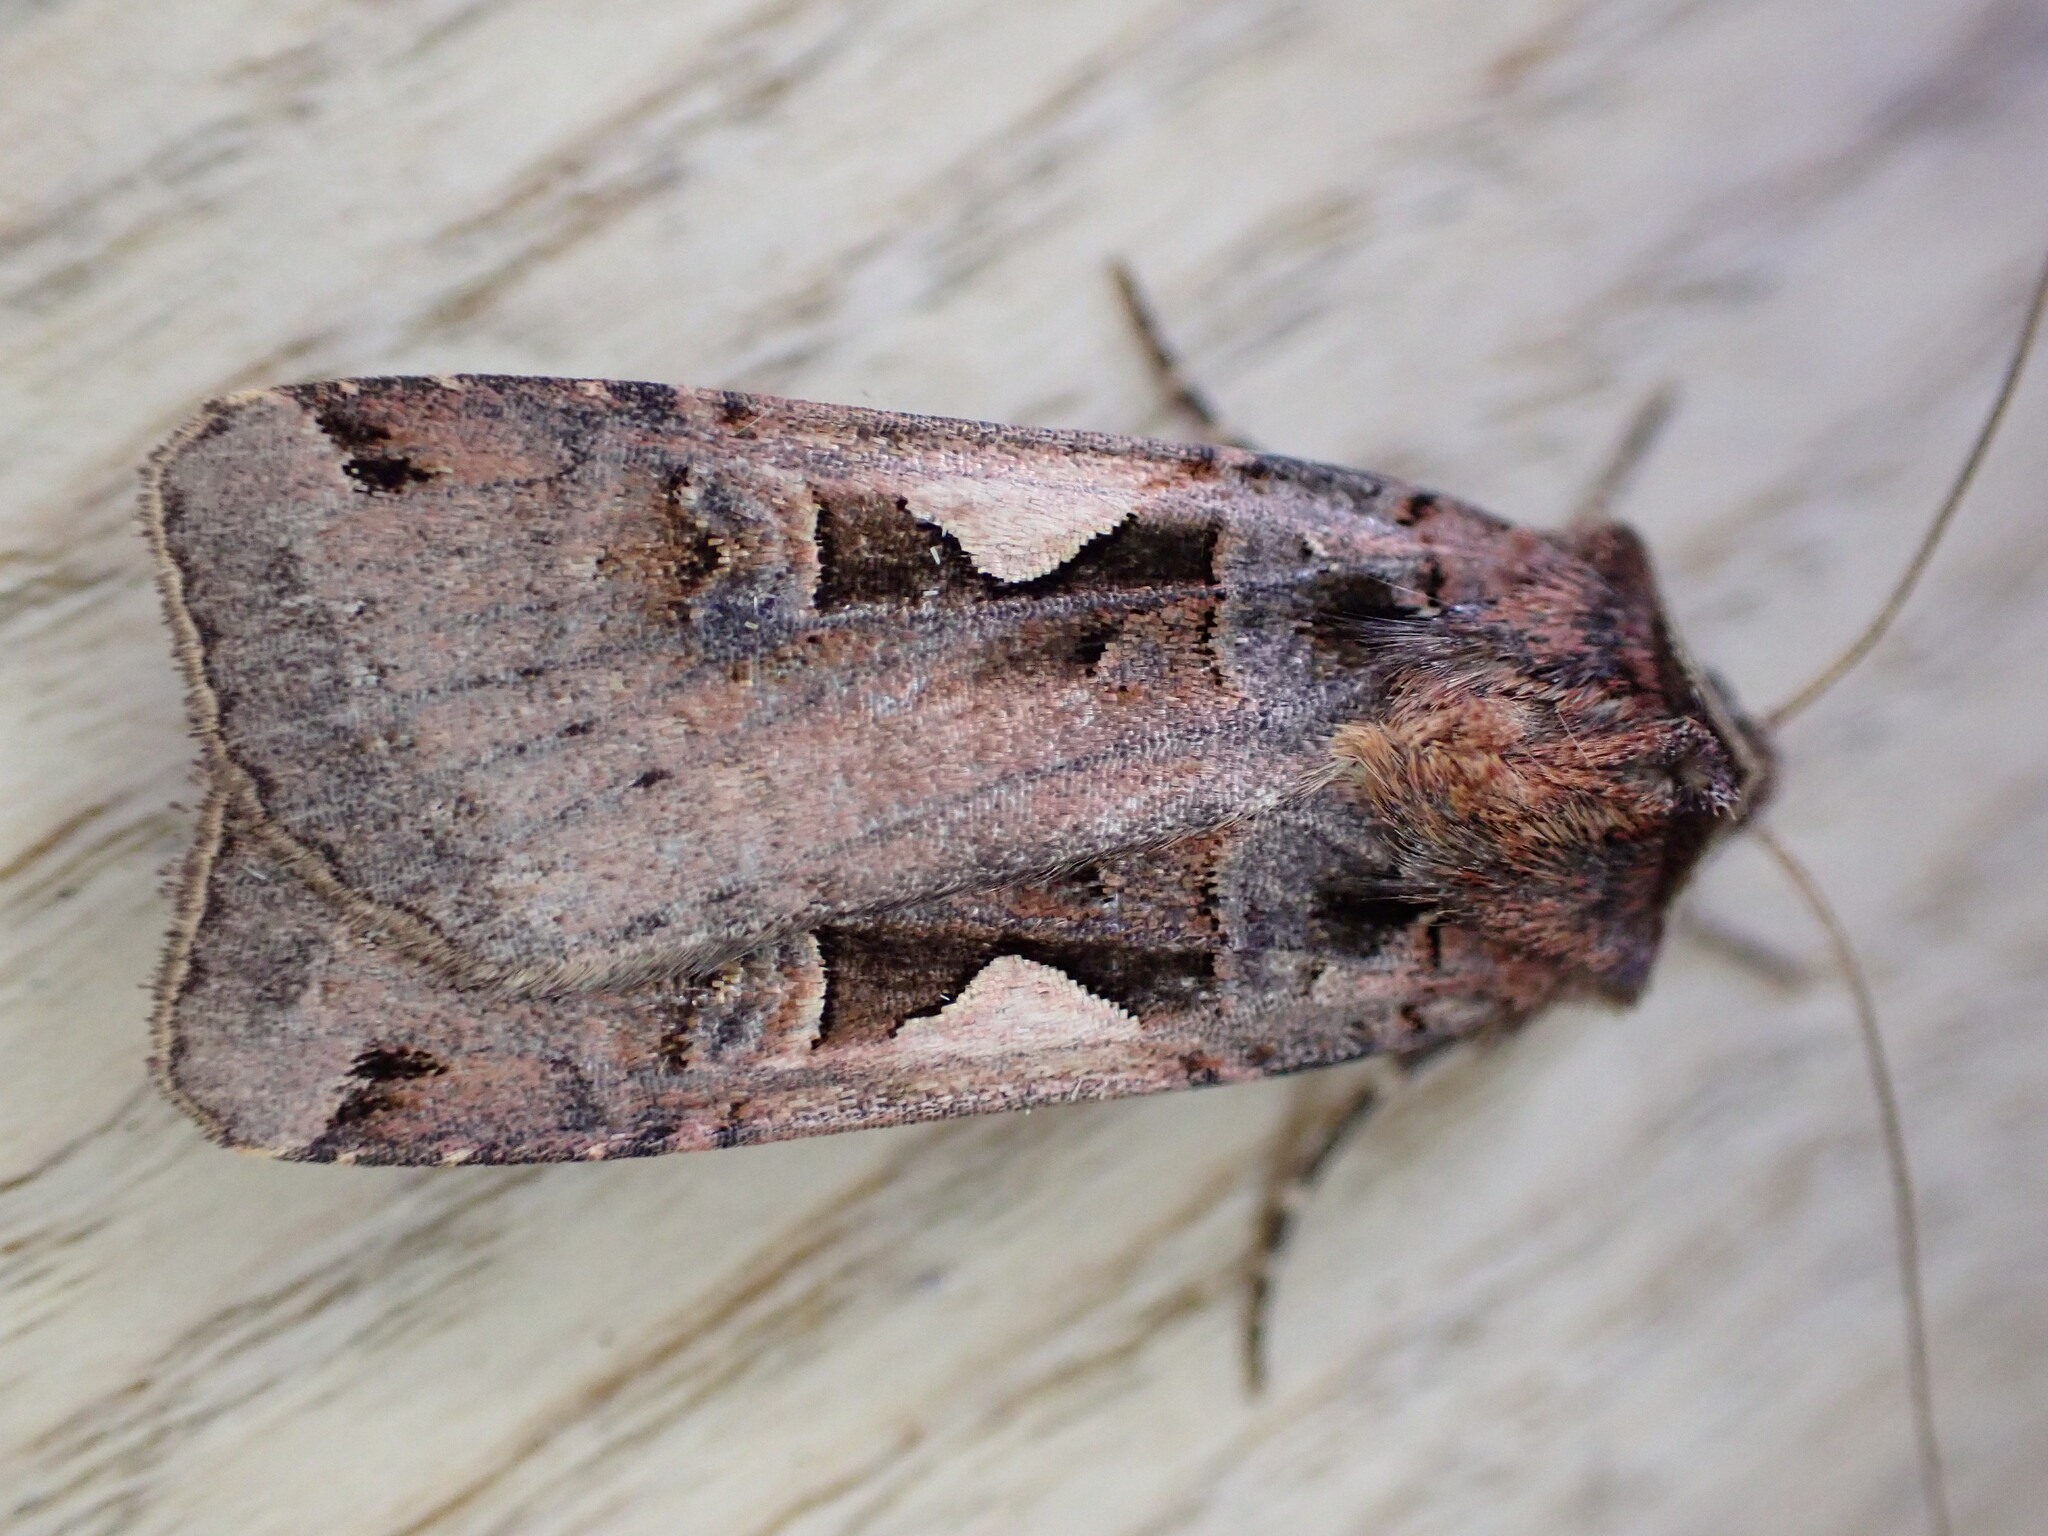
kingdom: Animalia
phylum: Arthropoda
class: Insecta
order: Lepidoptera
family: Noctuidae
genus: Xestia
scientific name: Xestia c-nigrum
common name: Setaceous hebrew character
